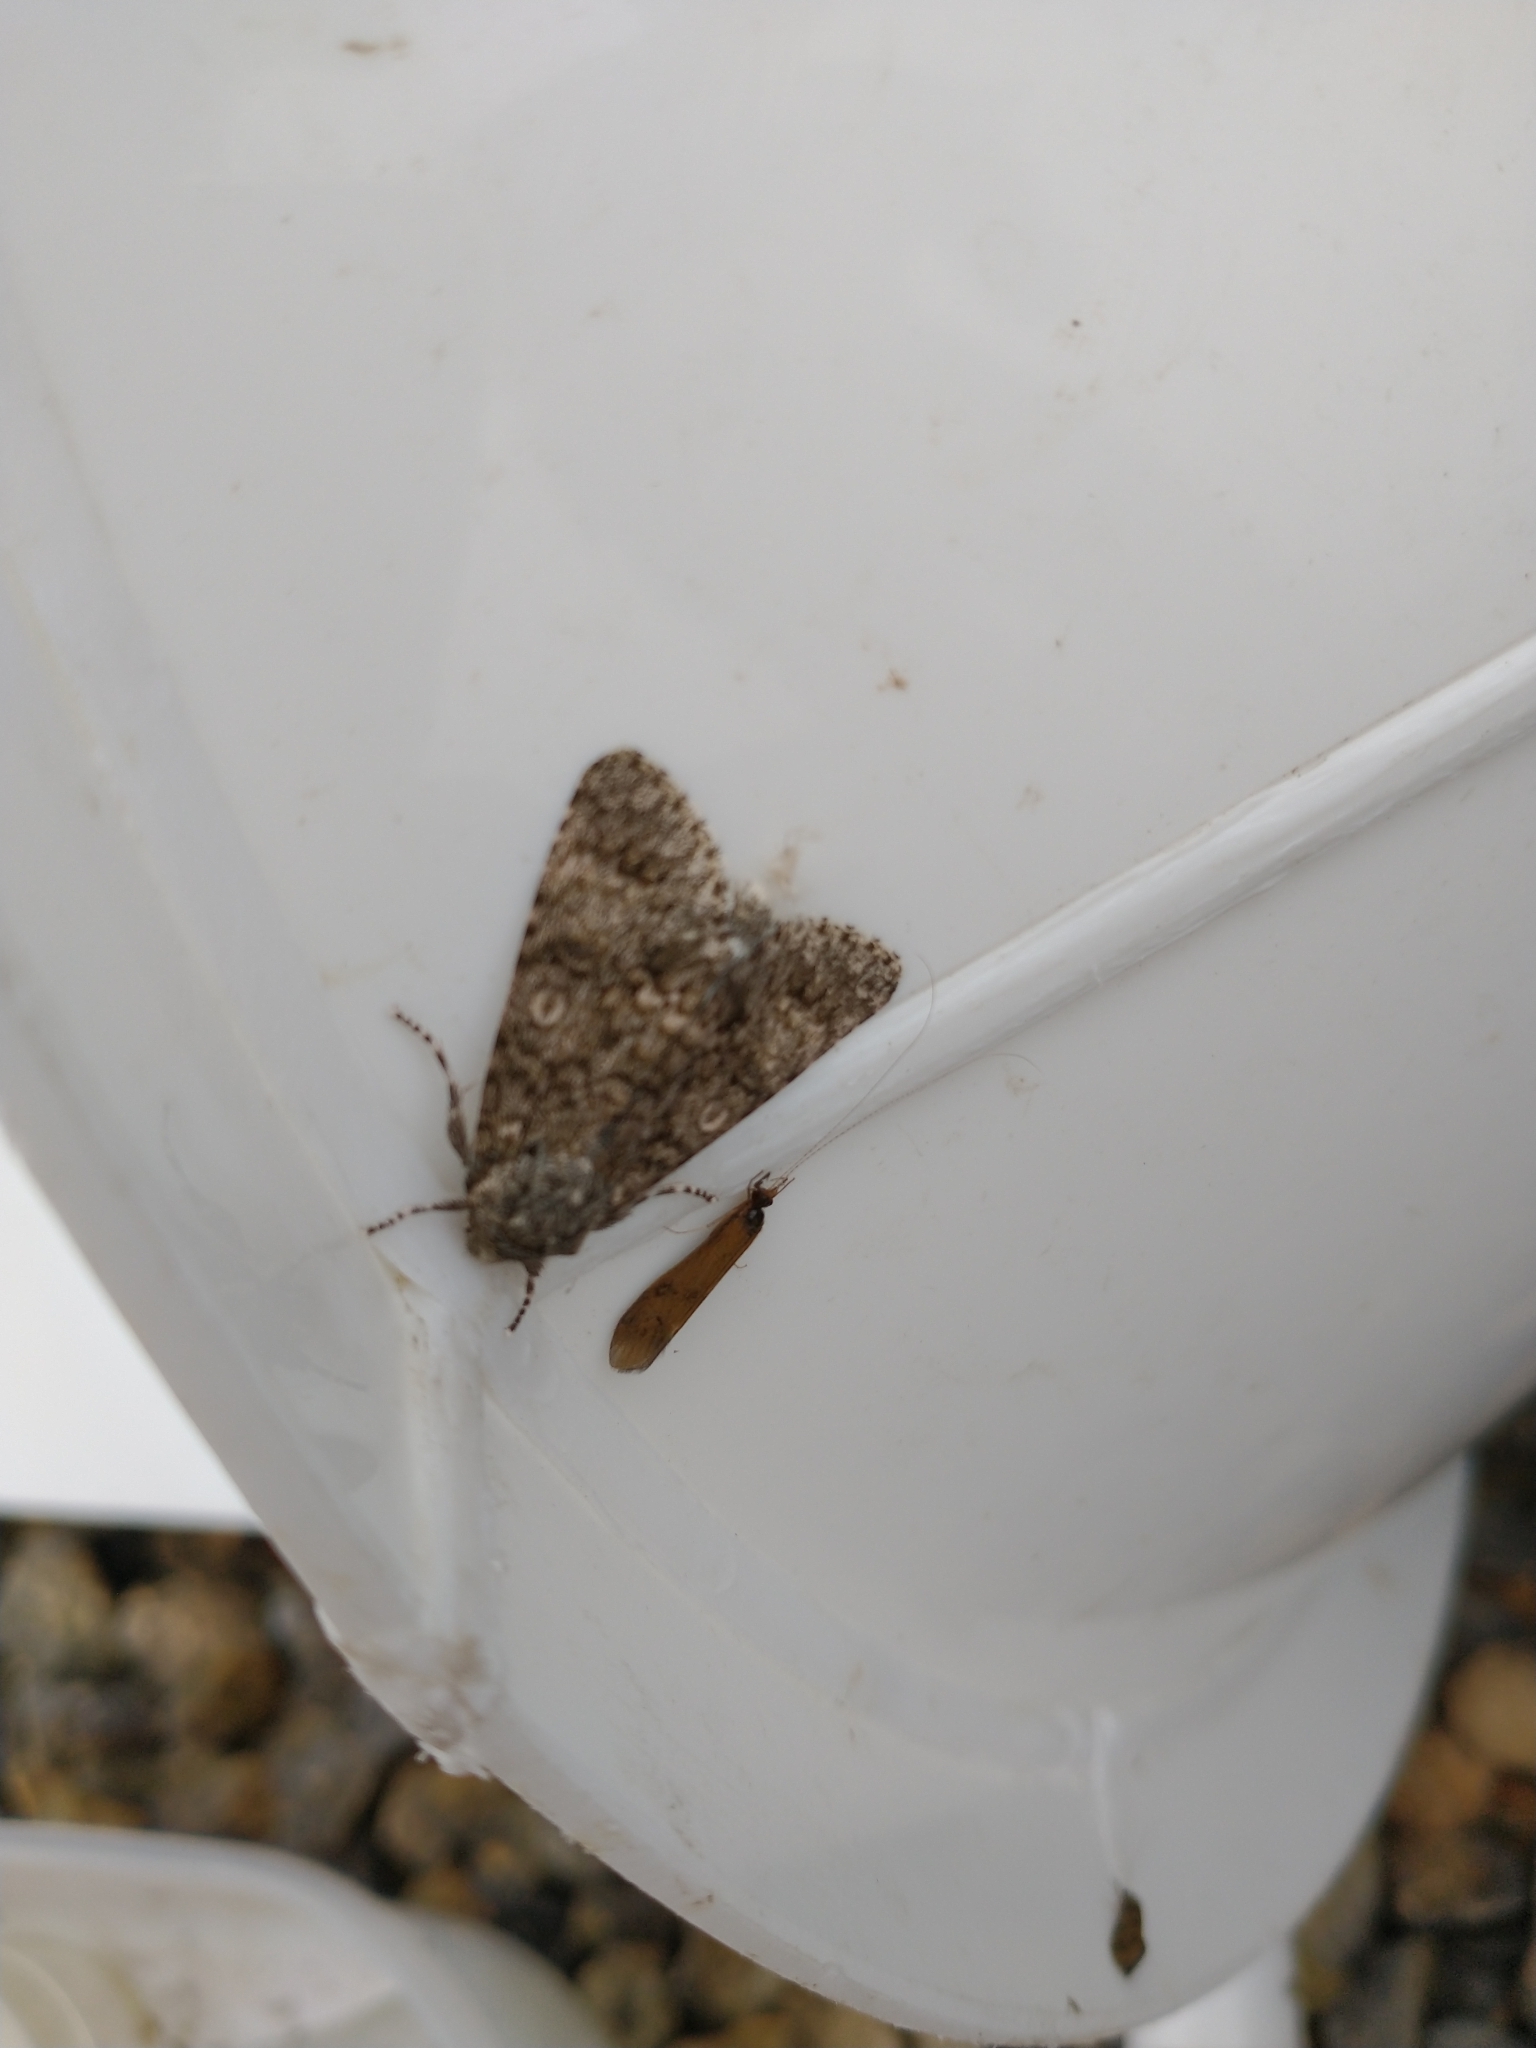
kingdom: Animalia
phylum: Arthropoda
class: Insecta
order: Lepidoptera
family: Noctuidae
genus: Acronicta
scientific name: Acronicta megacephala
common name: Poplar grey
